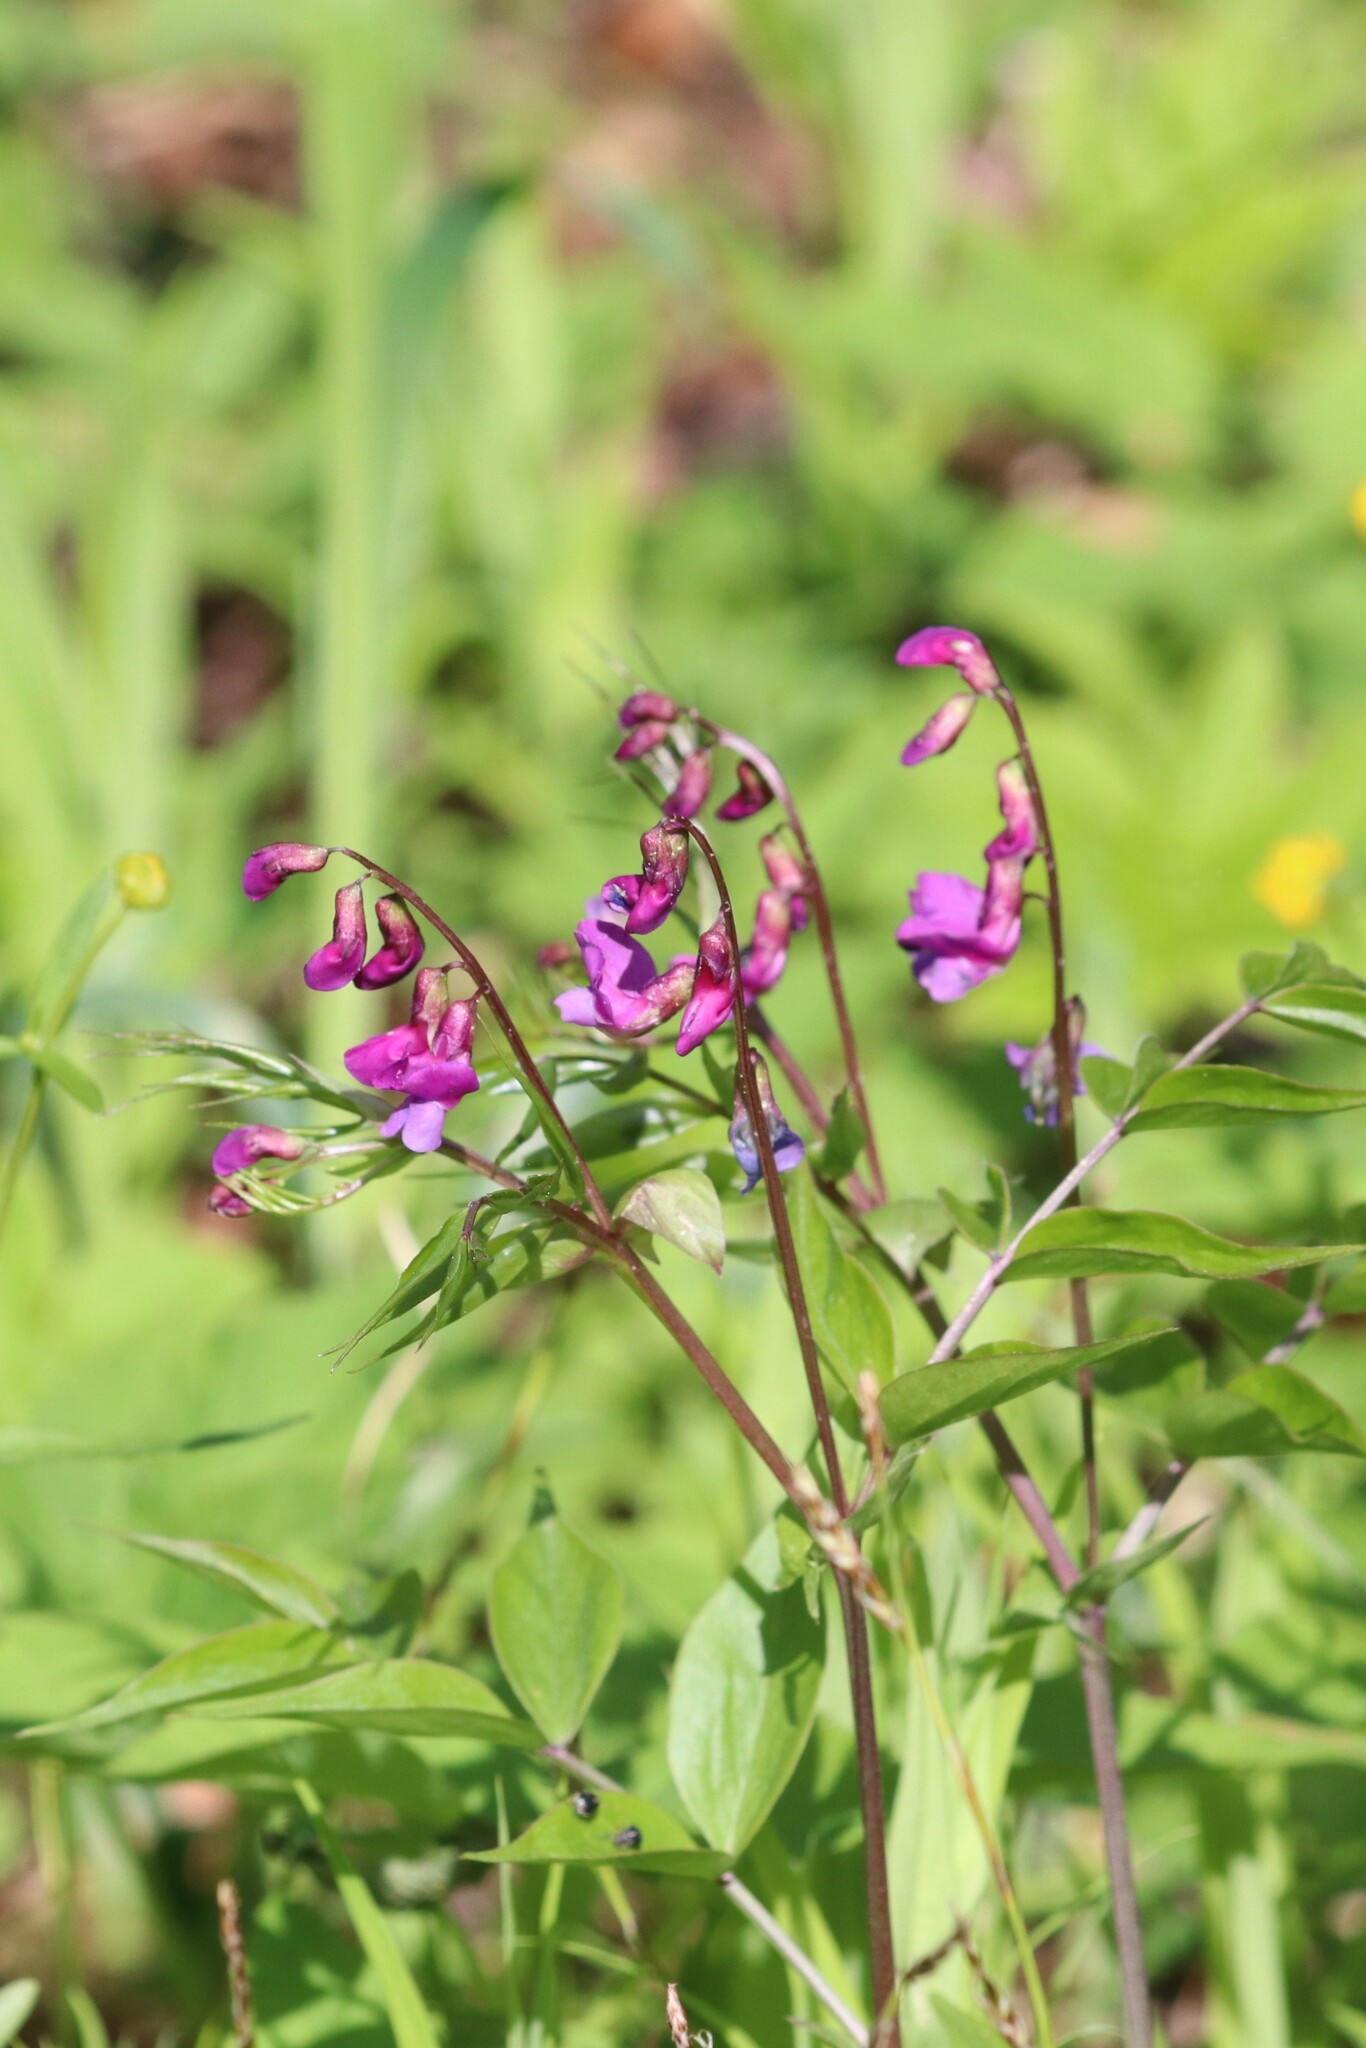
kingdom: Plantae
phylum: Tracheophyta
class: Magnoliopsida
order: Fabales
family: Fabaceae
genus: Lathyrus
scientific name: Lathyrus vernus
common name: Spring pea
